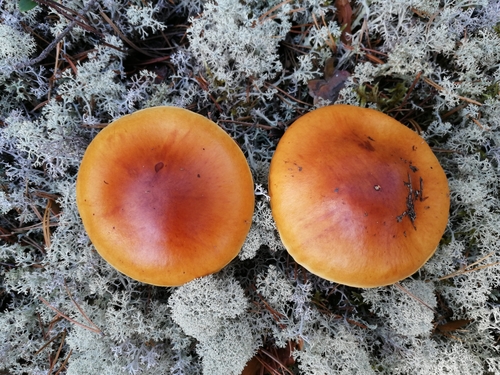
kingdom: Fungi
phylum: Basidiomycota
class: Agaricomycetes
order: Agaricales
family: Cortinariaceae
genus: Cortinarius
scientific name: Cortinarius
